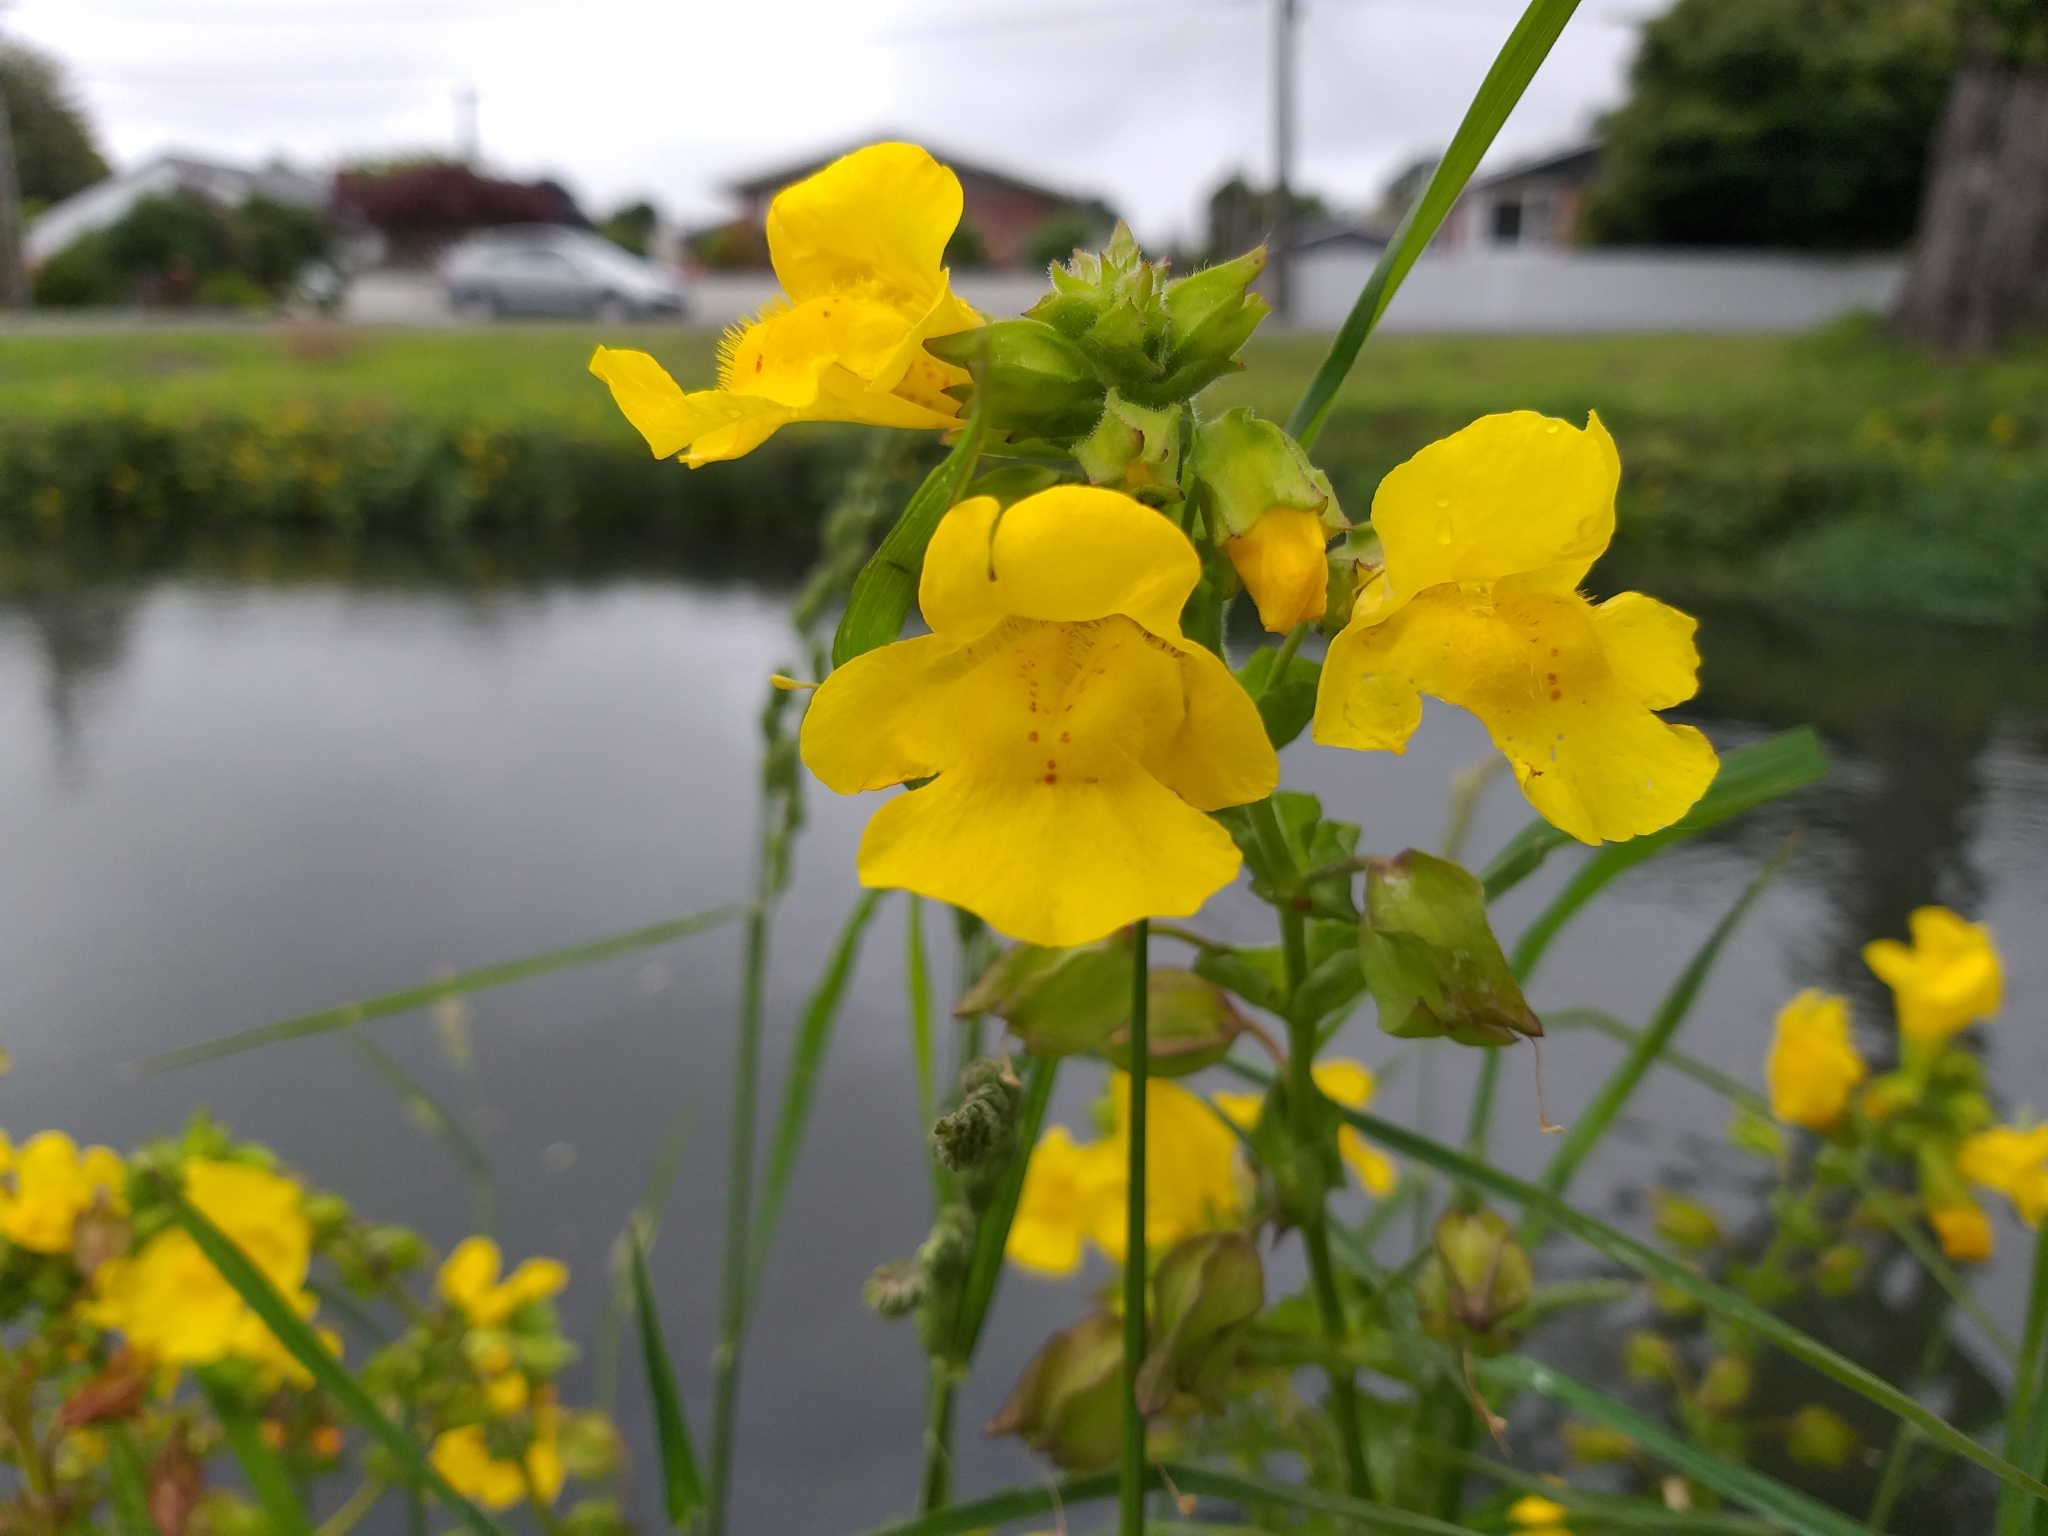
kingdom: Plantae
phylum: Tracheophyta
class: Magnoliopsida
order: Lamiales
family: Phrymaceae
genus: Erythranthe
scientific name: Erythranthe guttata
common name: Monkeyflower
